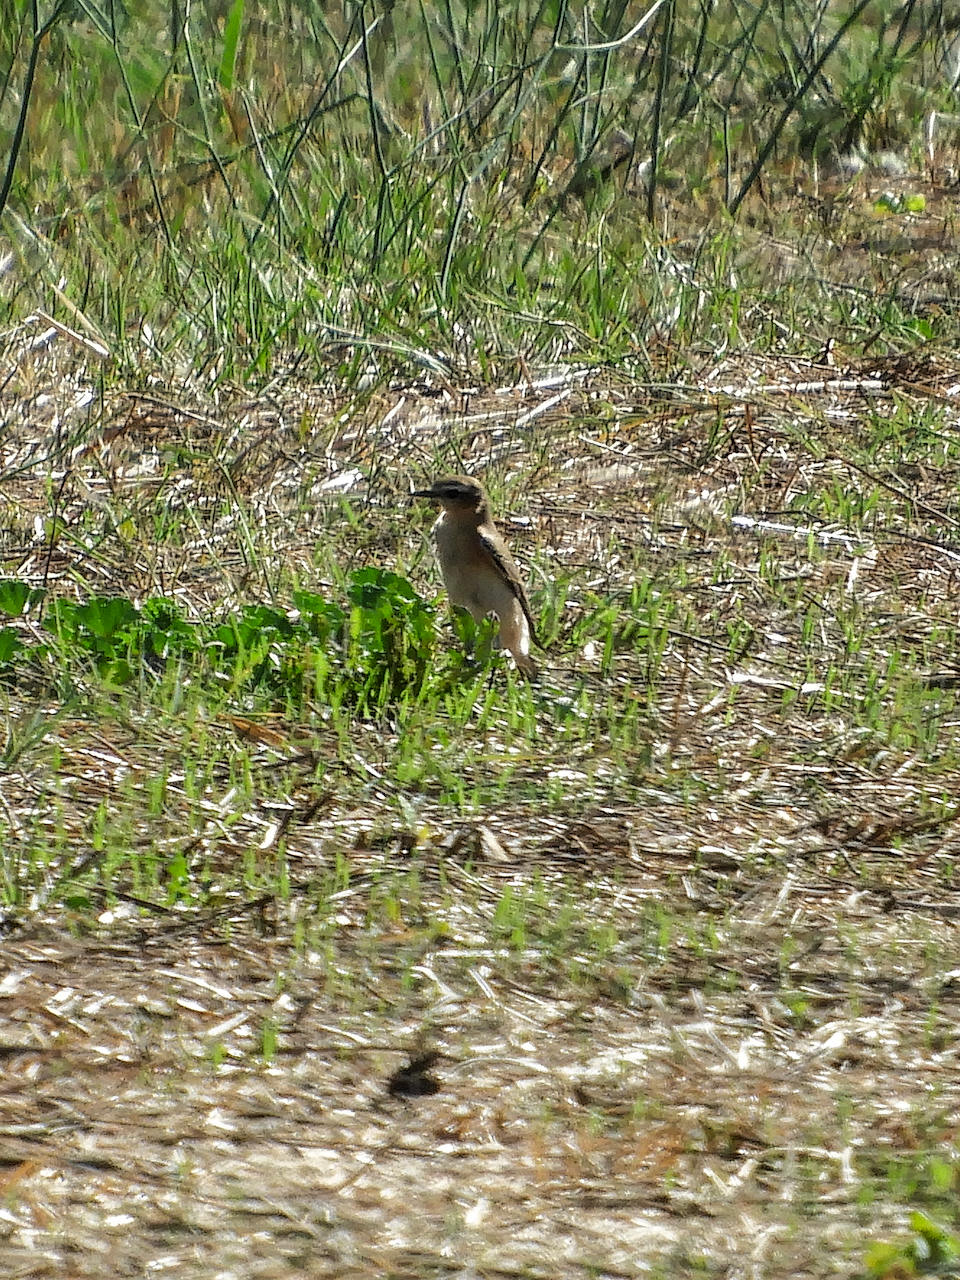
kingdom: Animalia
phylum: Chordata
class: Aves
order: Passeriformes
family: Muscicapidae
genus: Oenanthe
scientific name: Oenanthe oenanthe
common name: Northern wheatear
